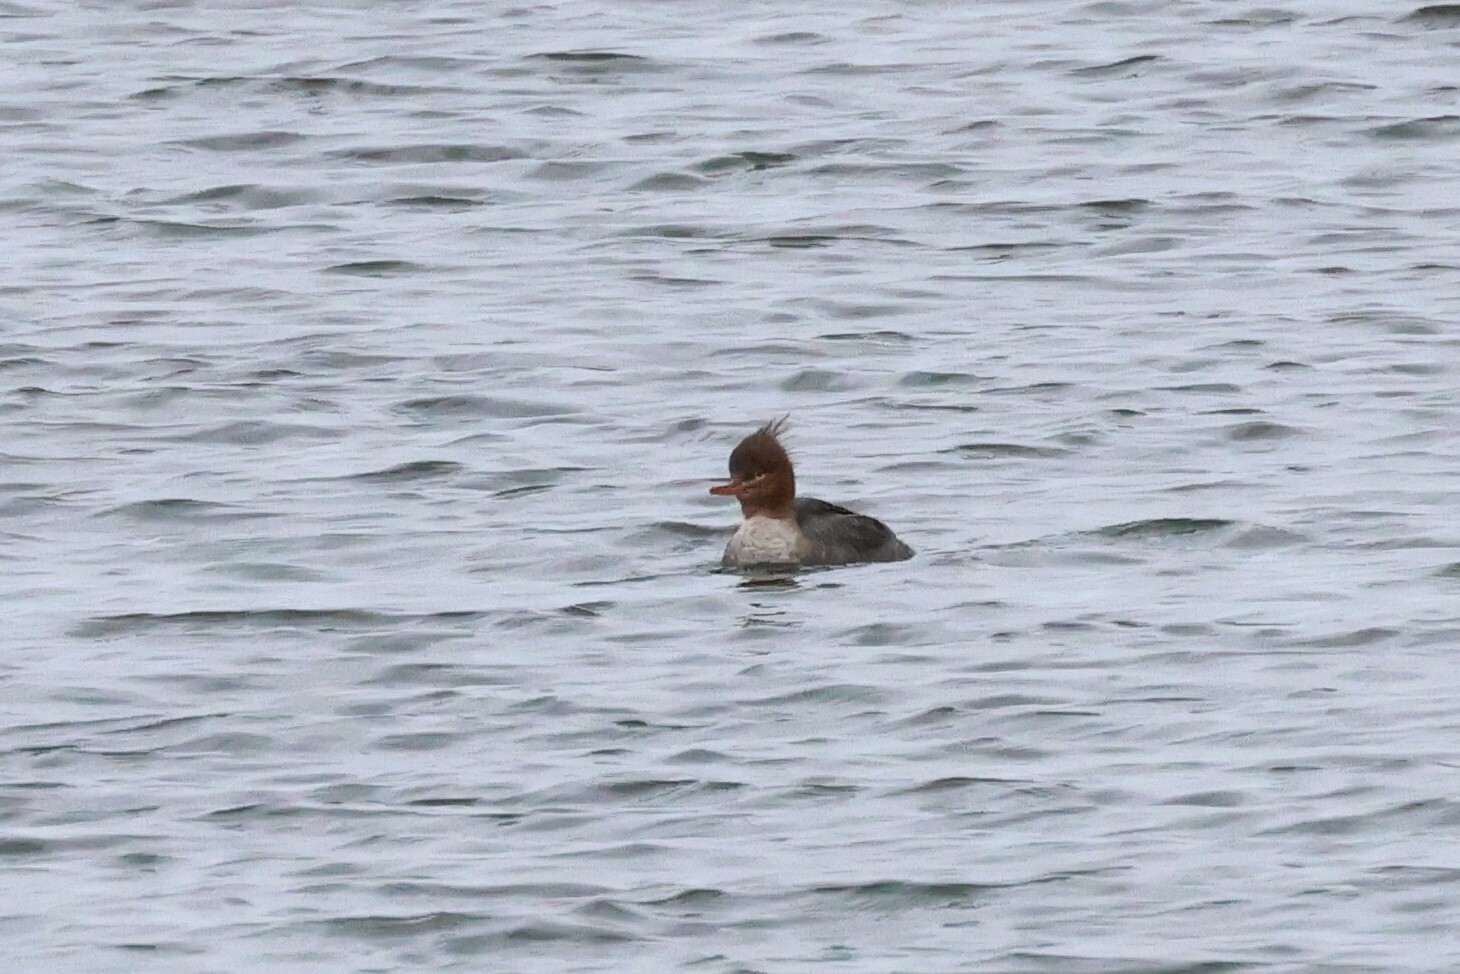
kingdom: Animalia
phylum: Chordata
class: Aves
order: Anseriformes
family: Anatidae
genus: Mergus
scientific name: Mergus serrator
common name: Red-breasted merganser
